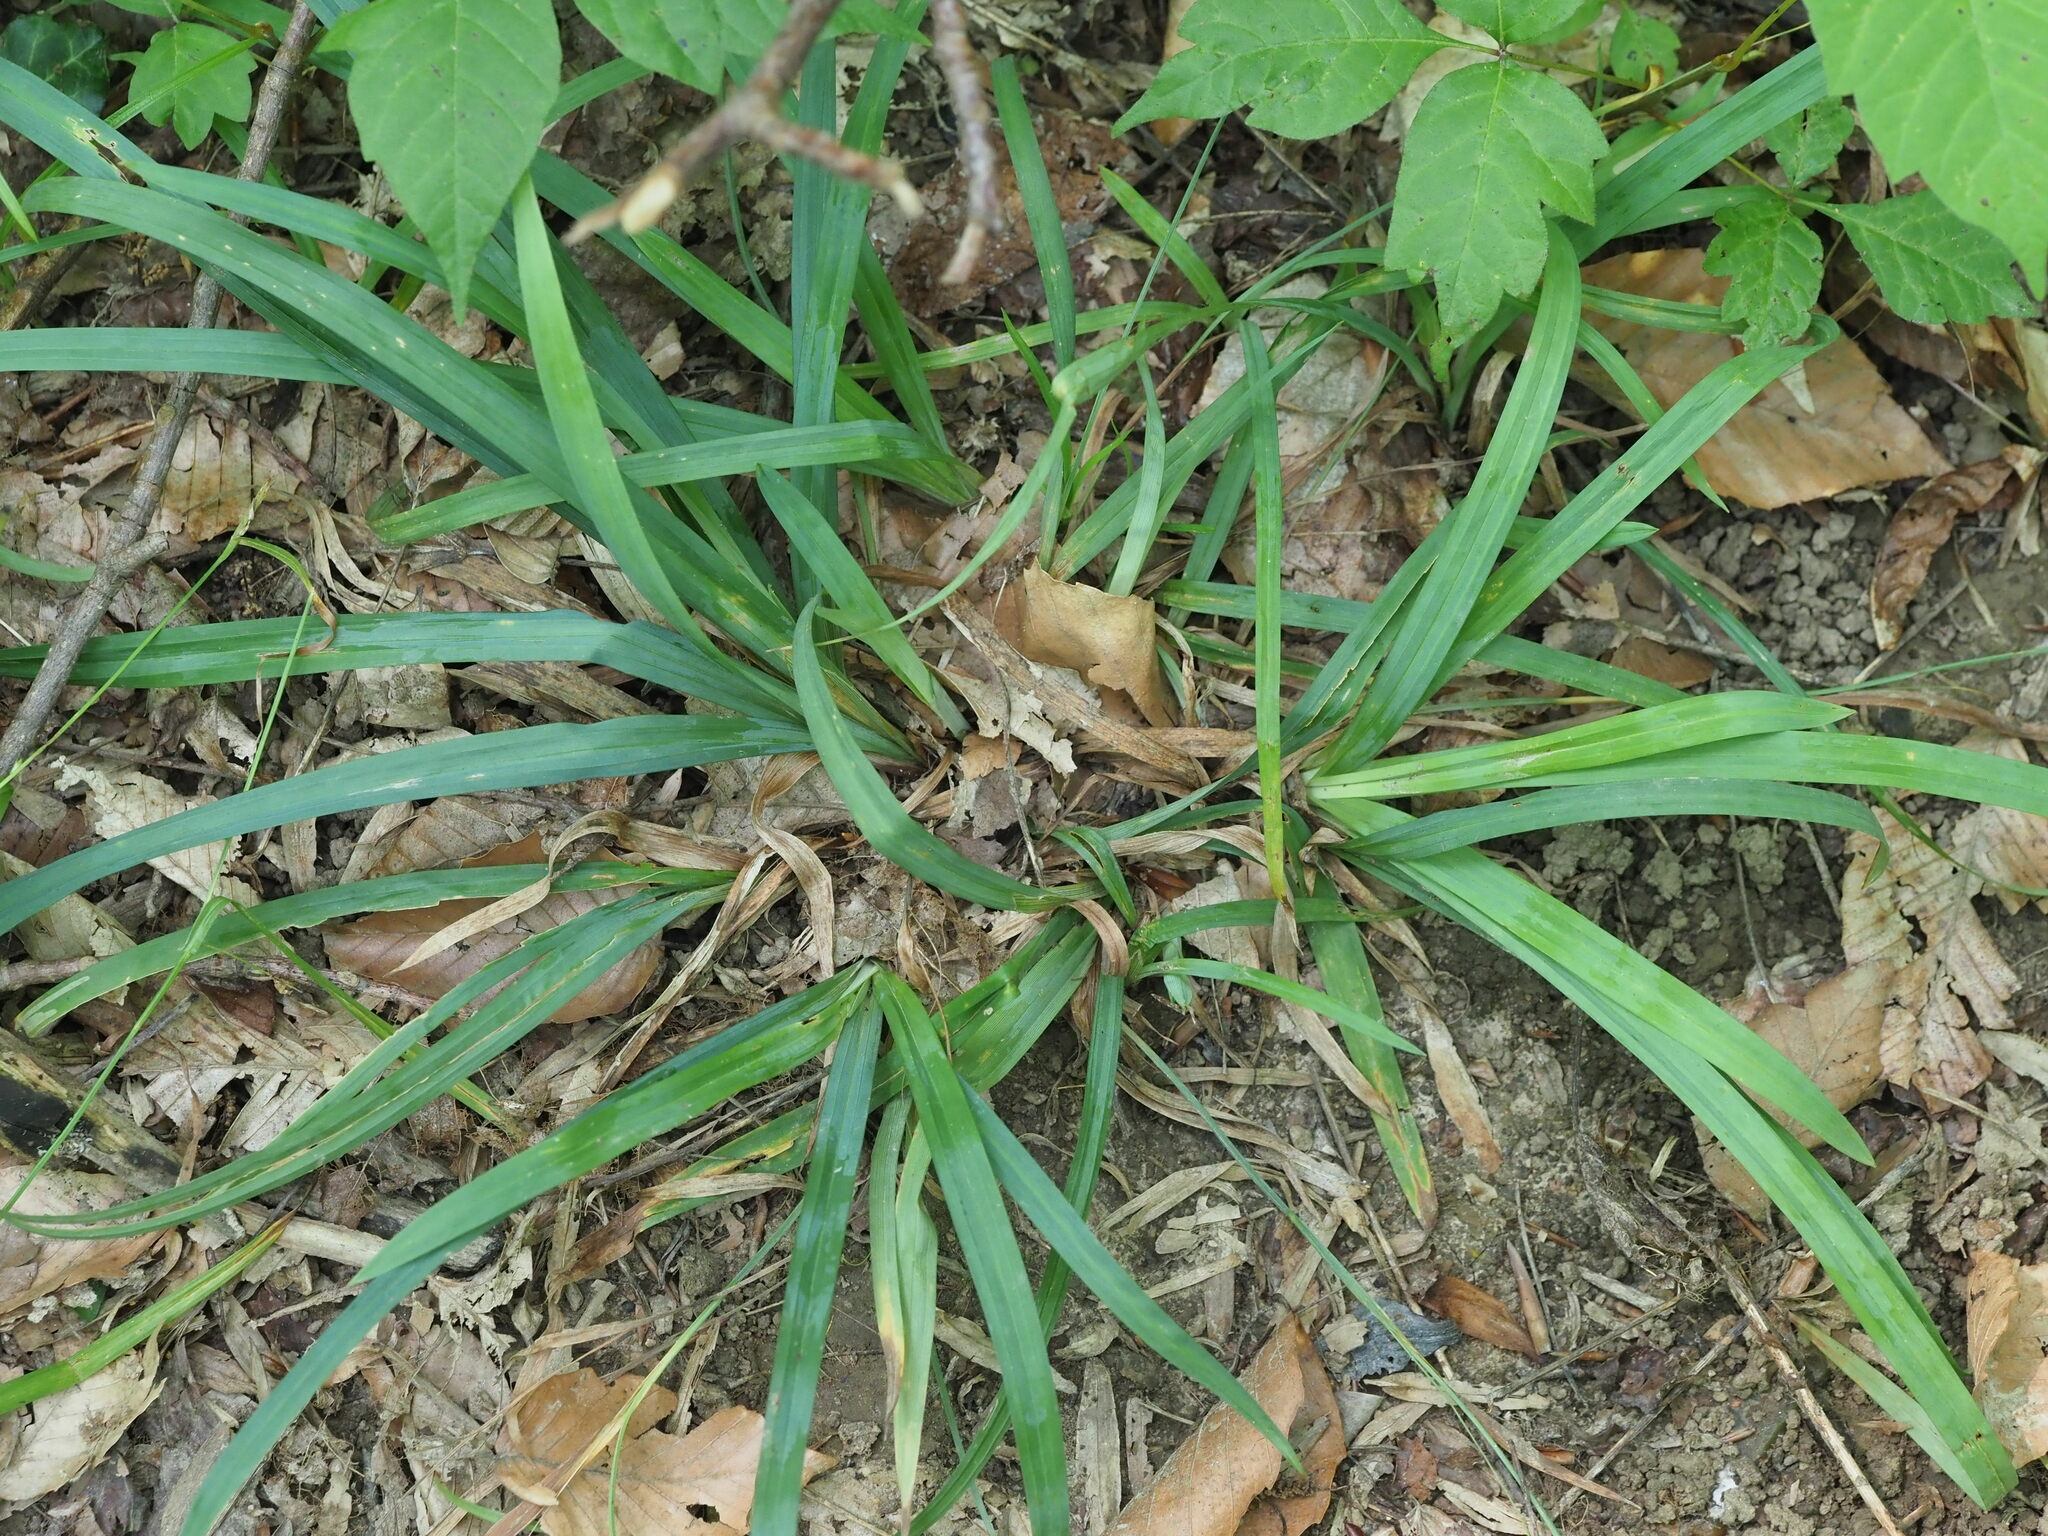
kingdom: Plantae
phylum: Tracheophyta
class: Liliopsida
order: Poales
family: Cyperaceae
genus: Carex
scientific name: Carex laxiculmis
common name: Spreading sedge
